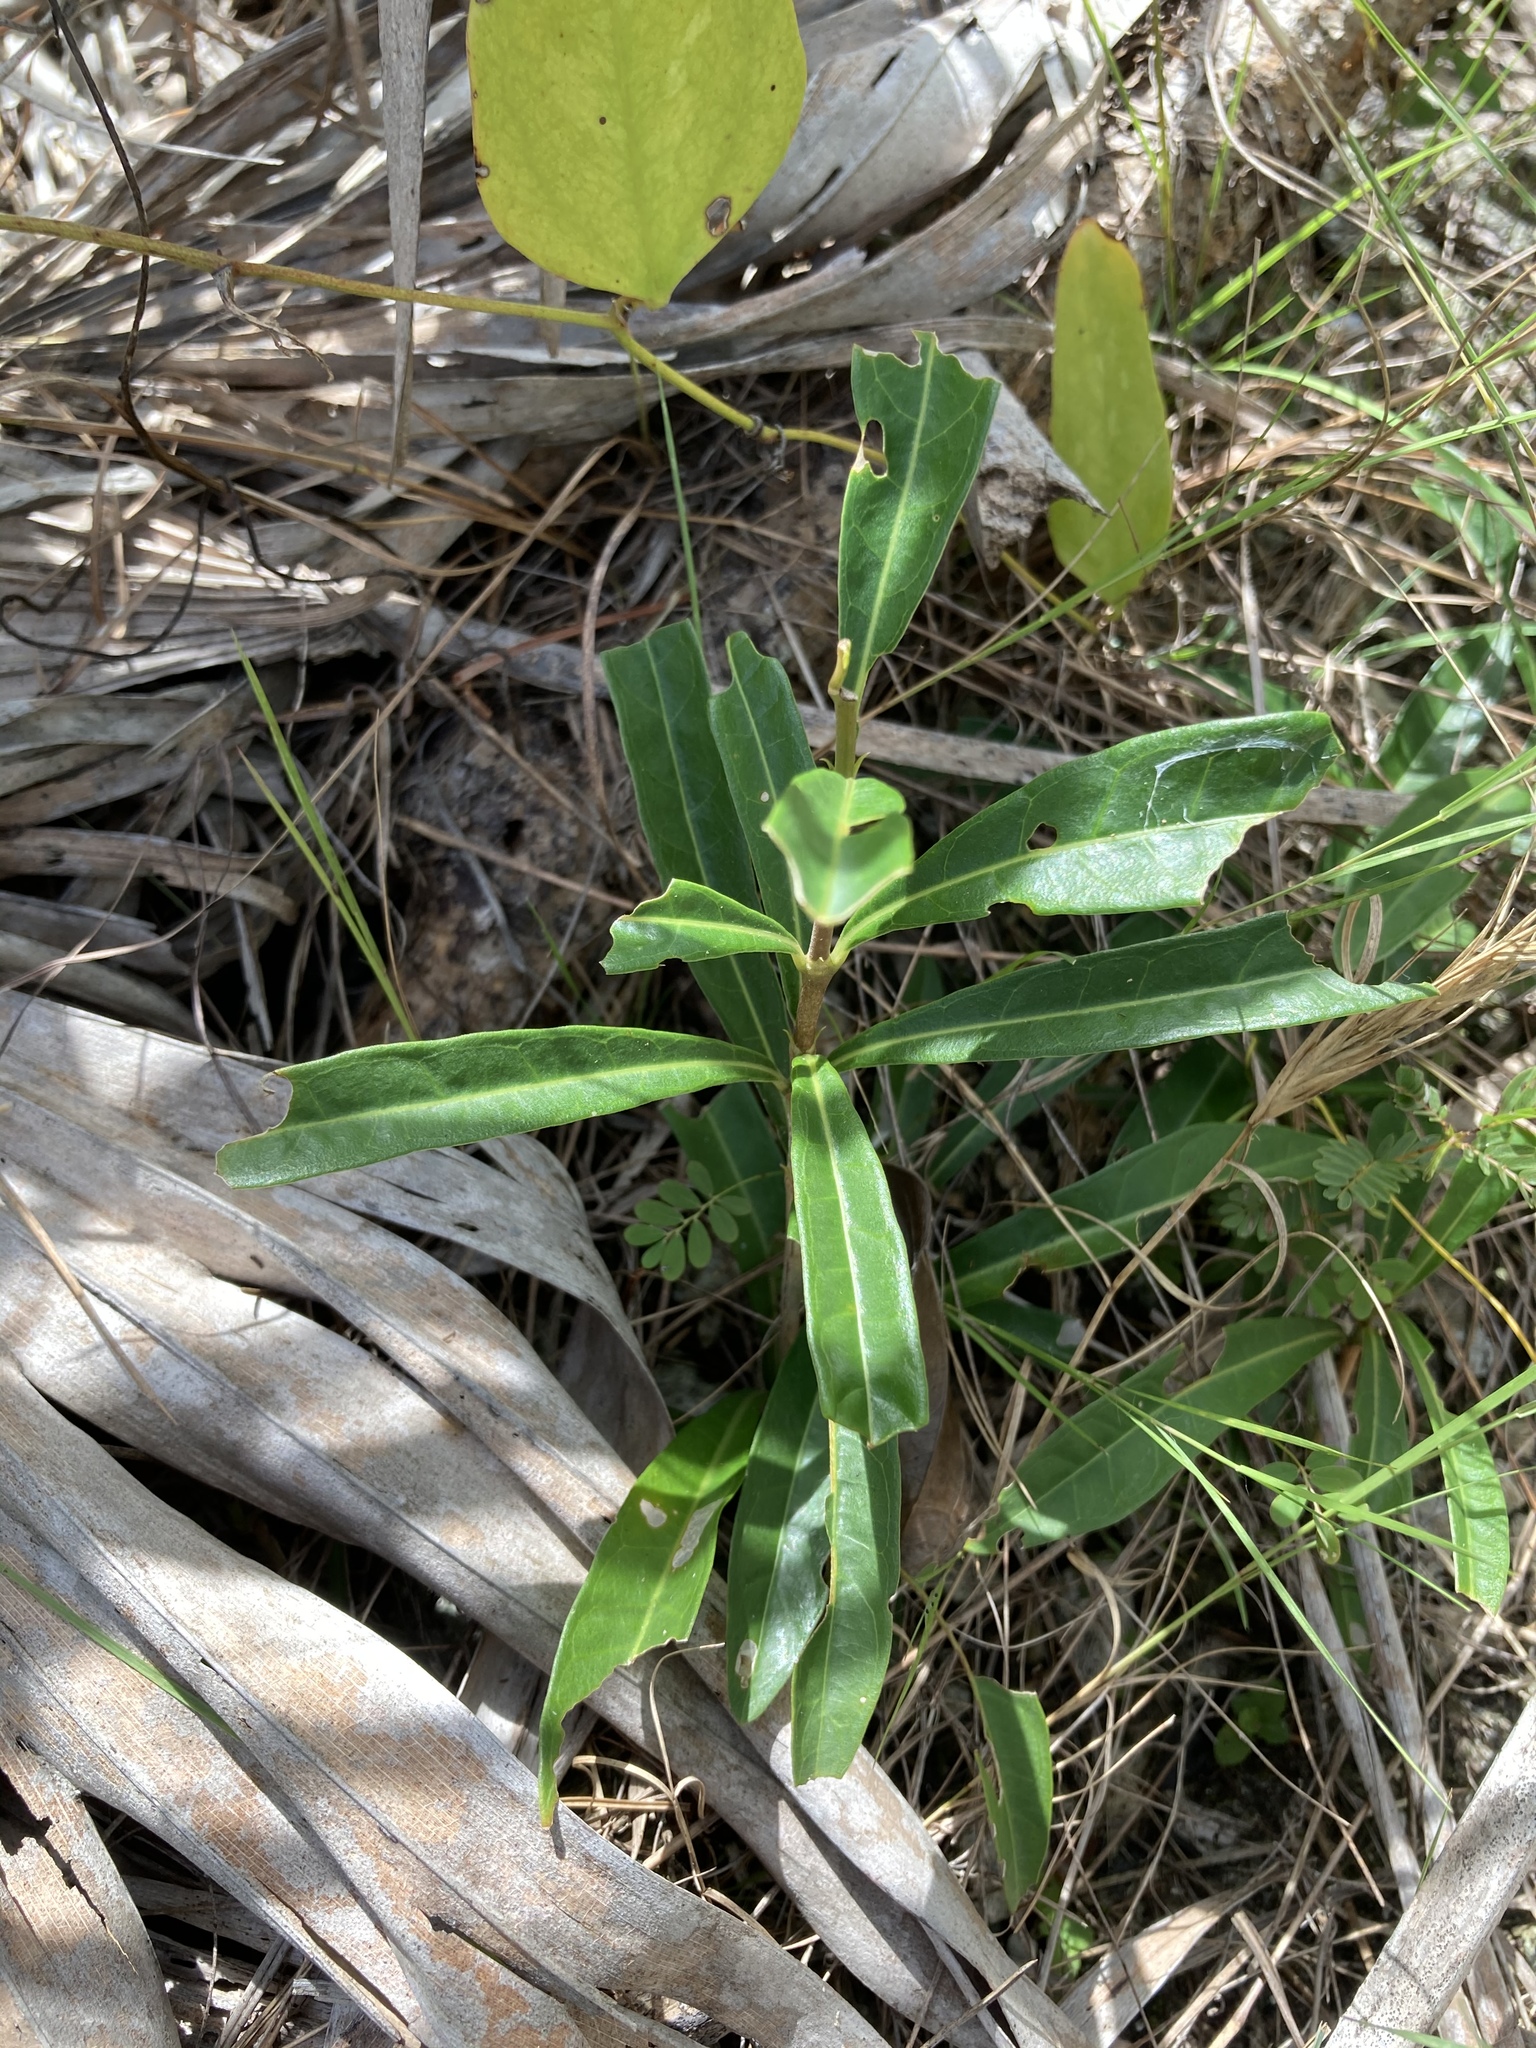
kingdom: Plantae
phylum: Tracheophyta
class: Magnoliopsida
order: Gentianales
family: Rubiaceae
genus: Morinda
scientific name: Morinda royoc
